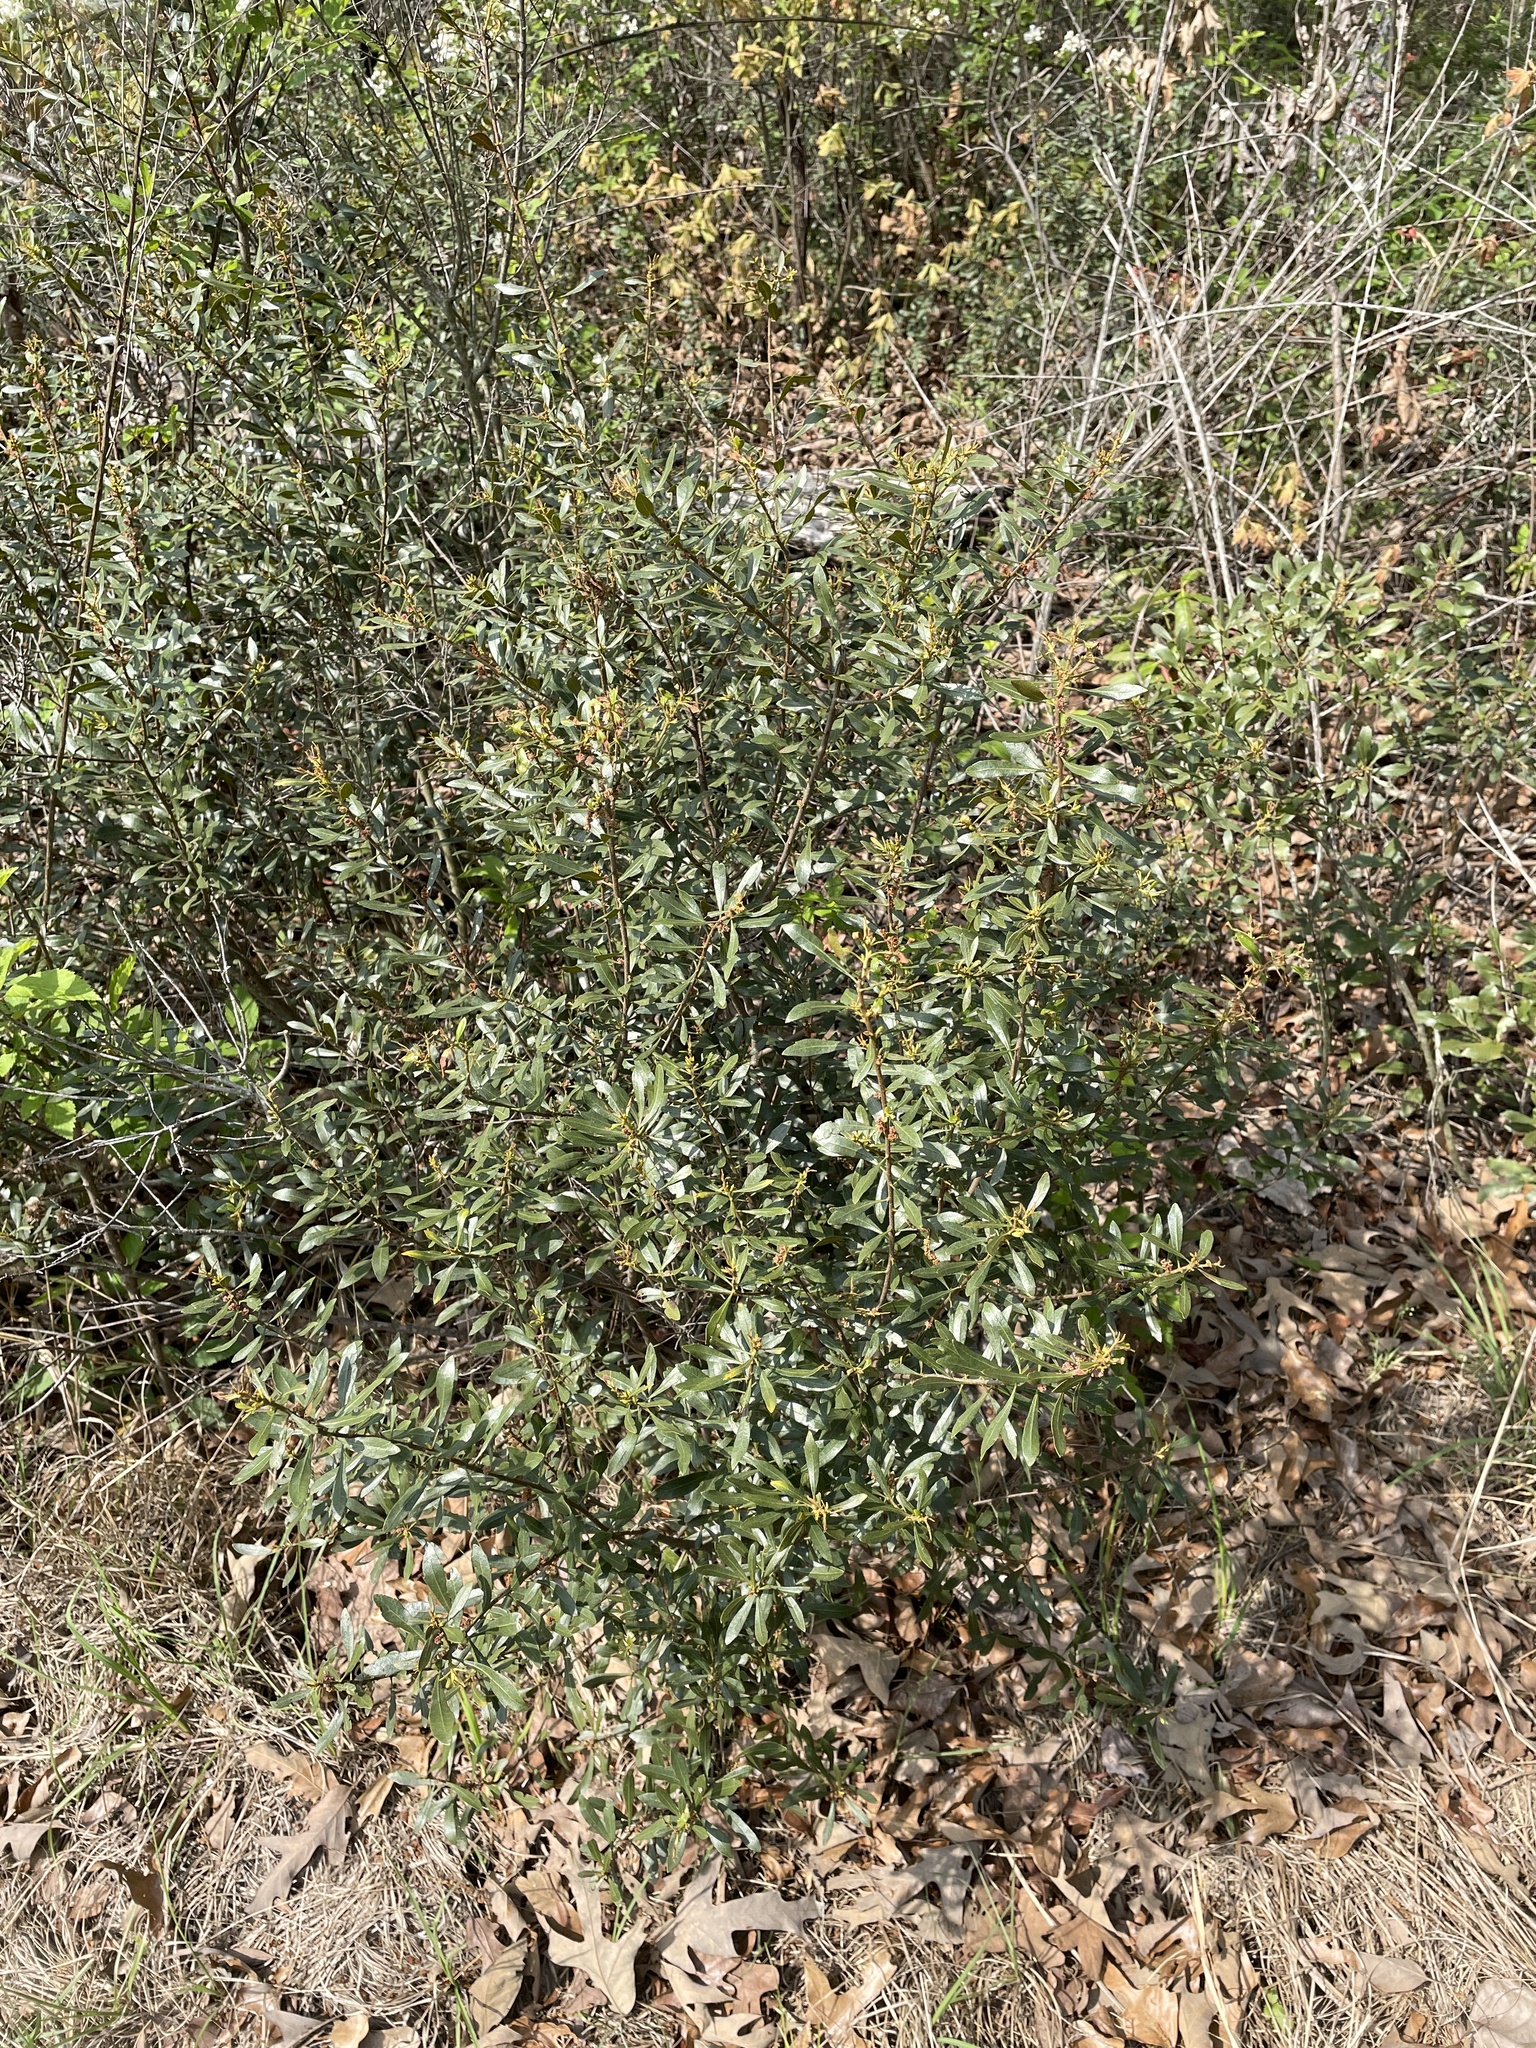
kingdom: Plantae
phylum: Tracheophyta
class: Magnoliopsida
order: Fagales
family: Myricaceae
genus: Morella
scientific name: Morella cerifera
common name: Wax myrtle
